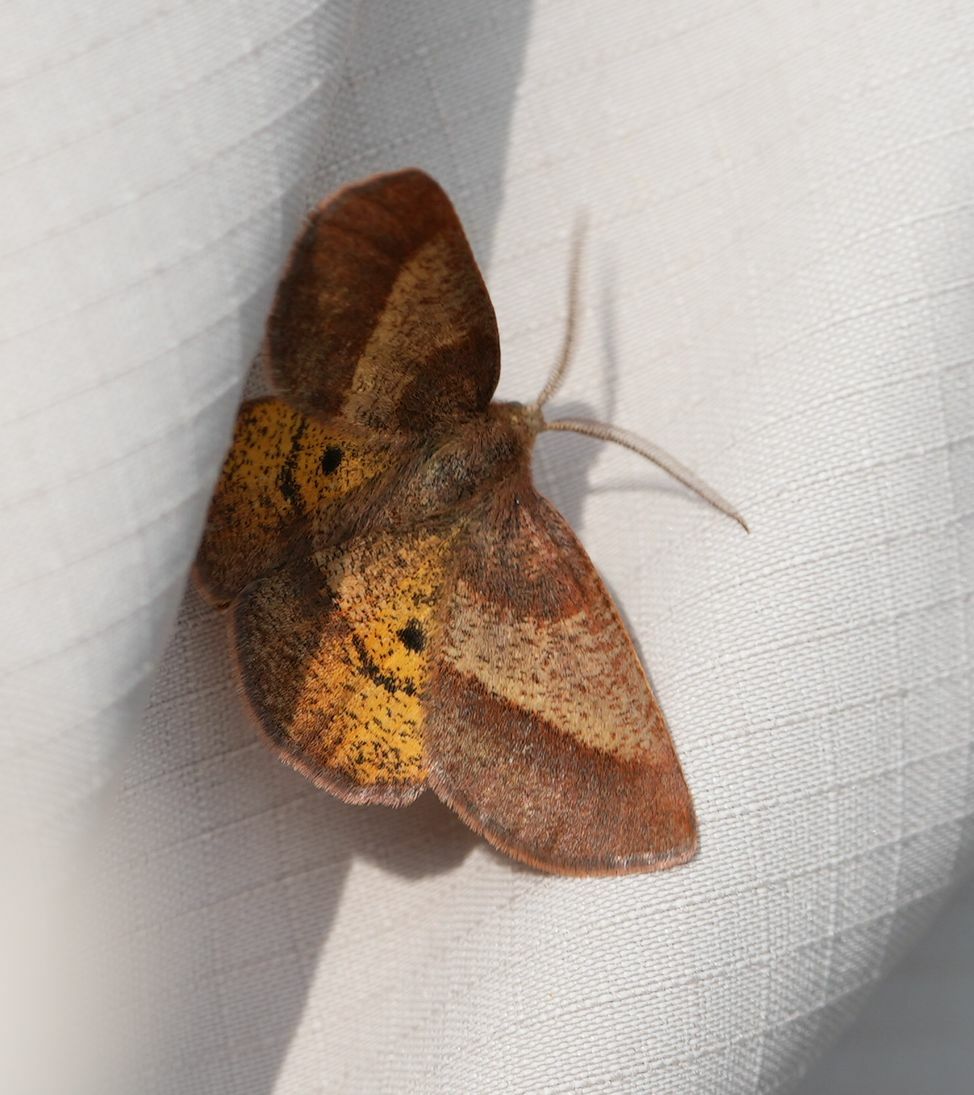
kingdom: Animalia
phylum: Arthropoda
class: Insecta
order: Lepidoptera
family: Geometridae
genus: Metarranthis
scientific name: Metarranthis obfirmaria
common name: Yellow-washed metarranthis
